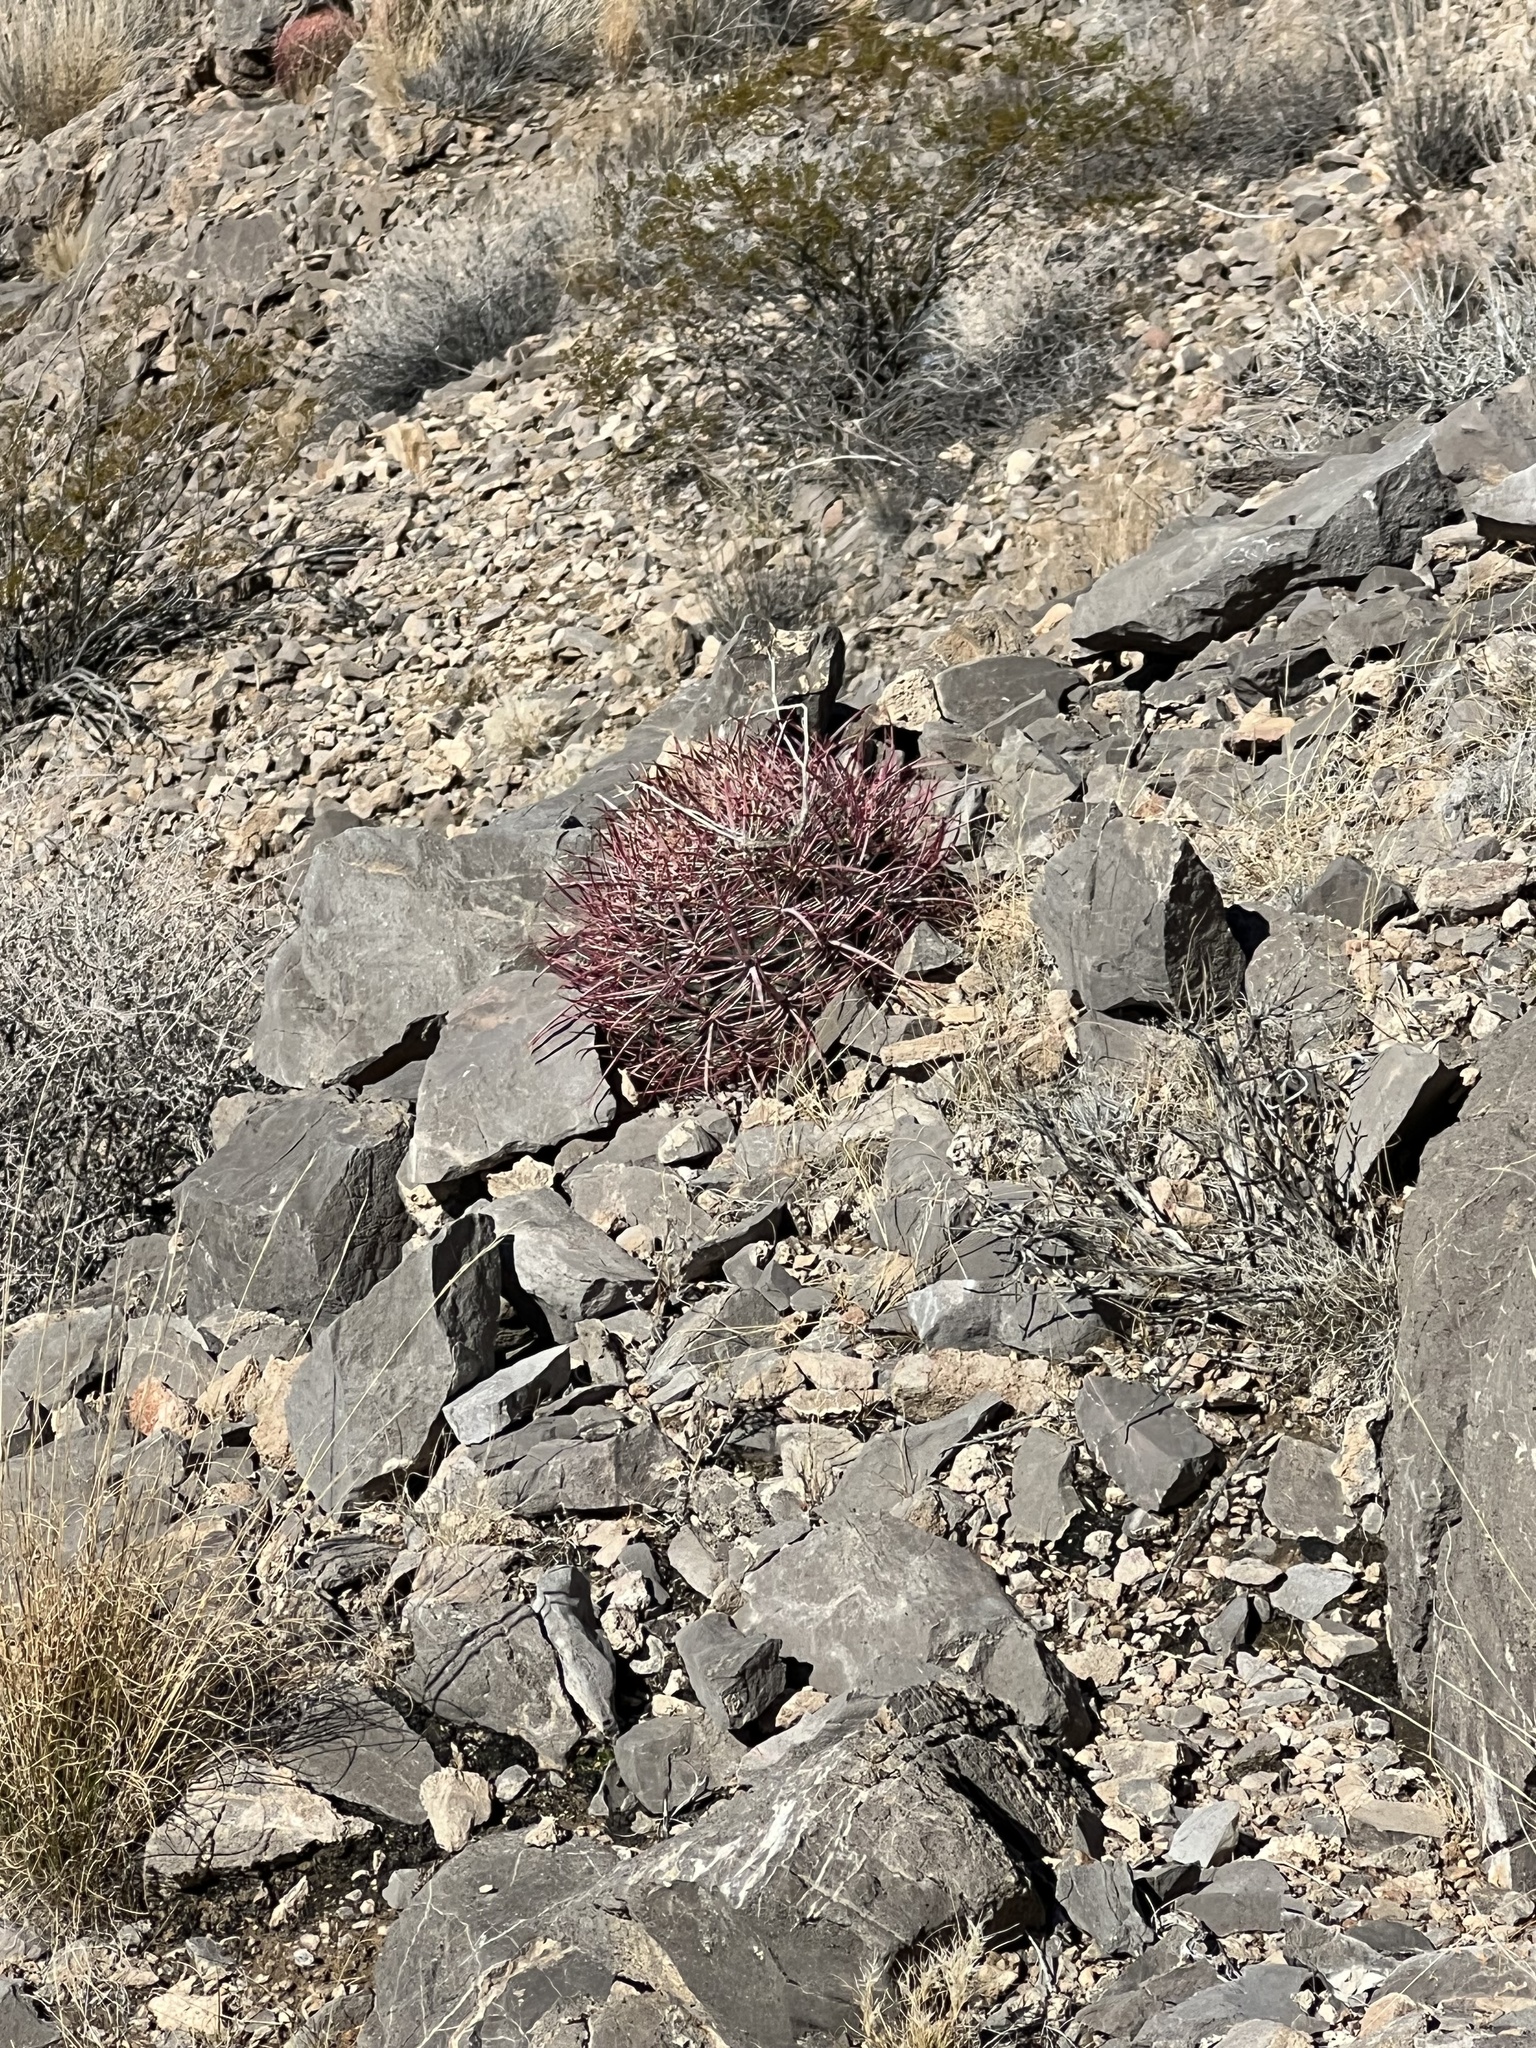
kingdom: Plantae
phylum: Tracheophyta
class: Magnoliopsida
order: Caryophyllales
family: Cactaceae
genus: Ferocactus
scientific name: Ferocactus cylindraceus
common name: California barrel cactus
